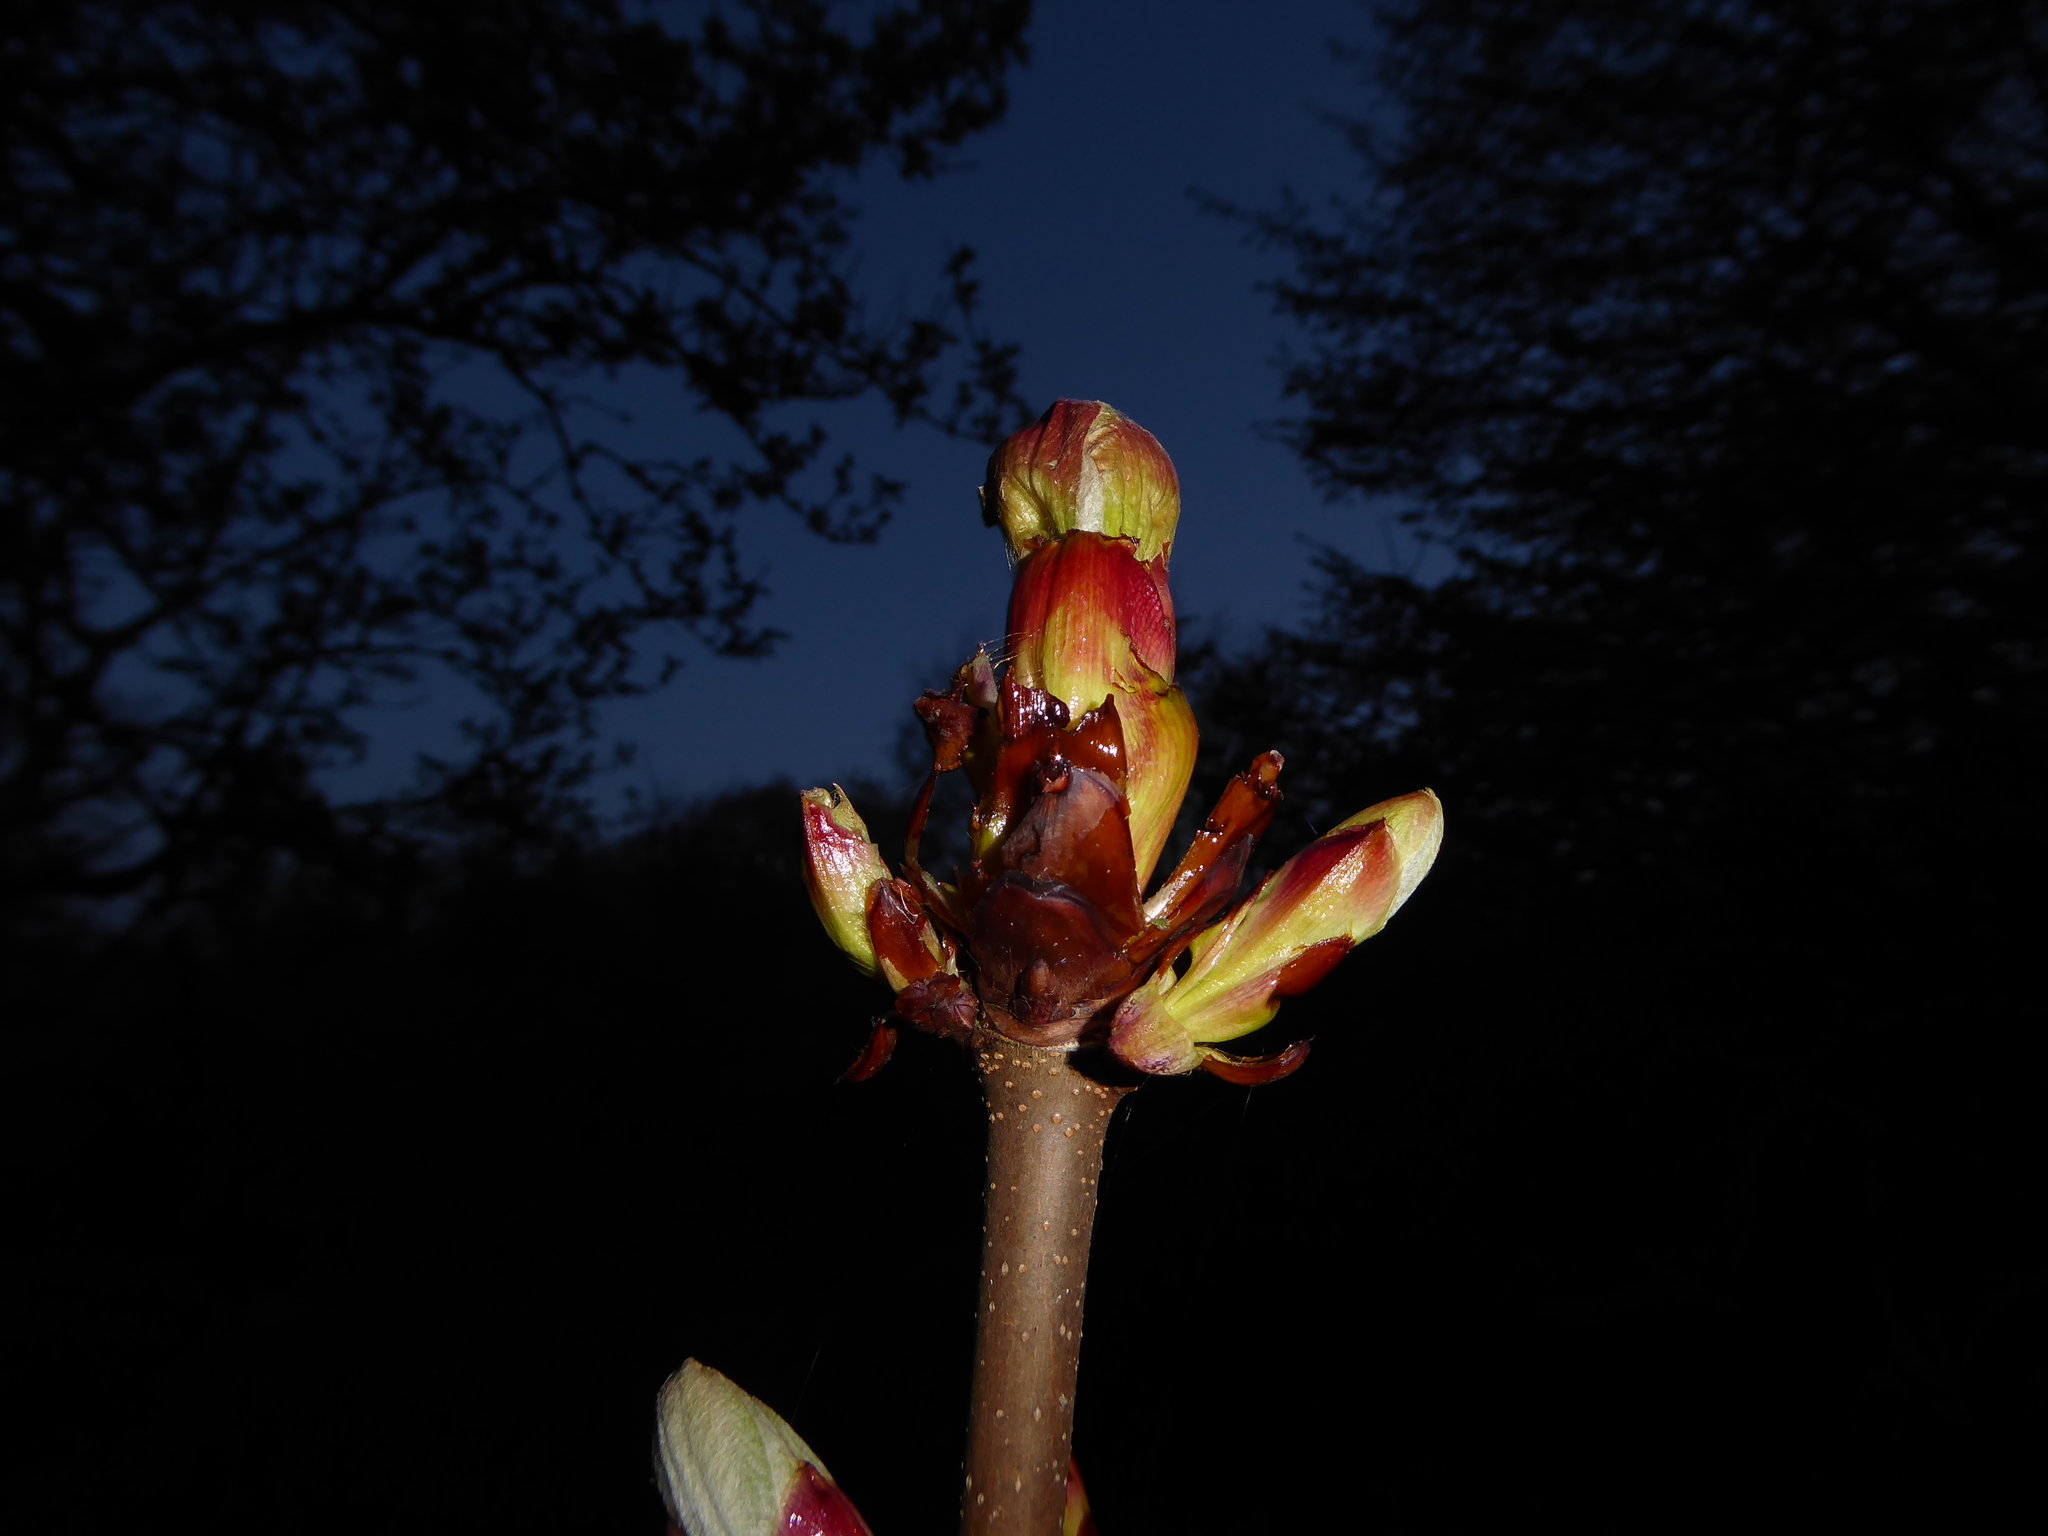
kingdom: Plantae
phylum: Tracheophyta
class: Magnoliopsida
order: Sapindales
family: Sapindaceae
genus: Aesculus
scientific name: Aesculus hippocastanum
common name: Horse-chestnut
